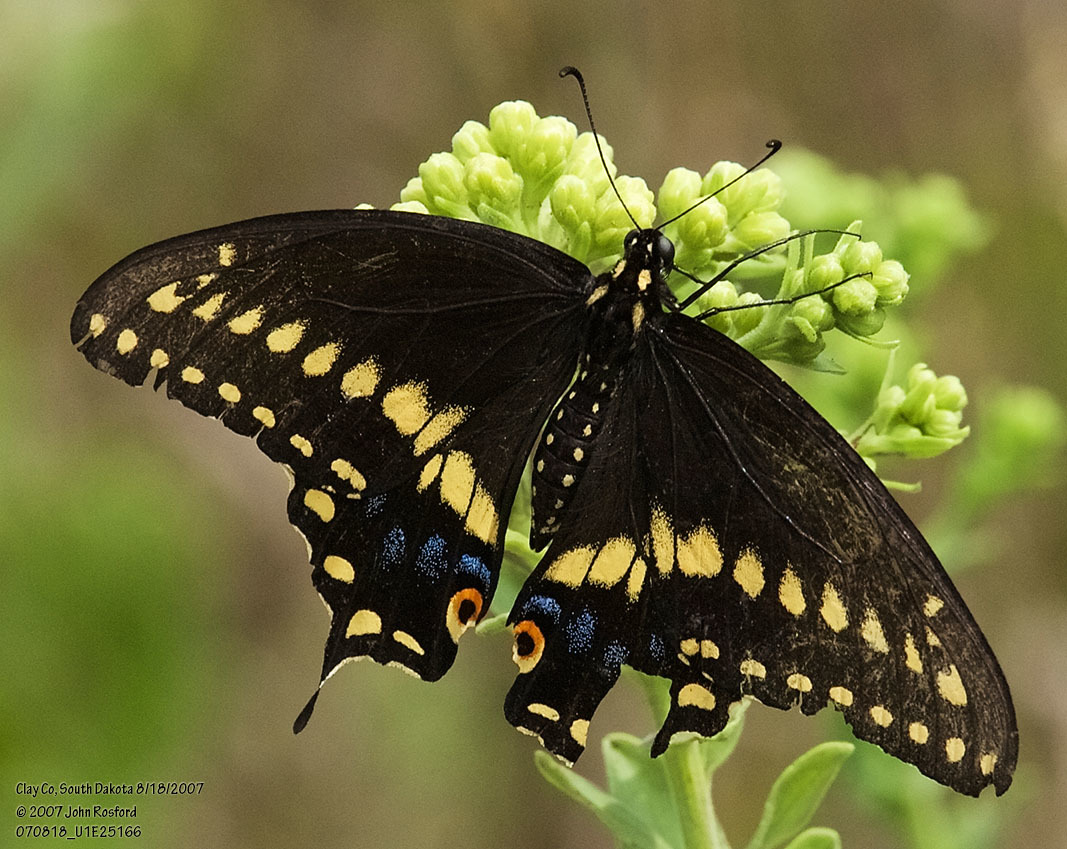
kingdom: Animalia
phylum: Arthropoda
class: Insecta
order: Lepidoptera
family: Papilionidae
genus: Papilio
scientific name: Papilio polyxenes
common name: Black swallowtail
